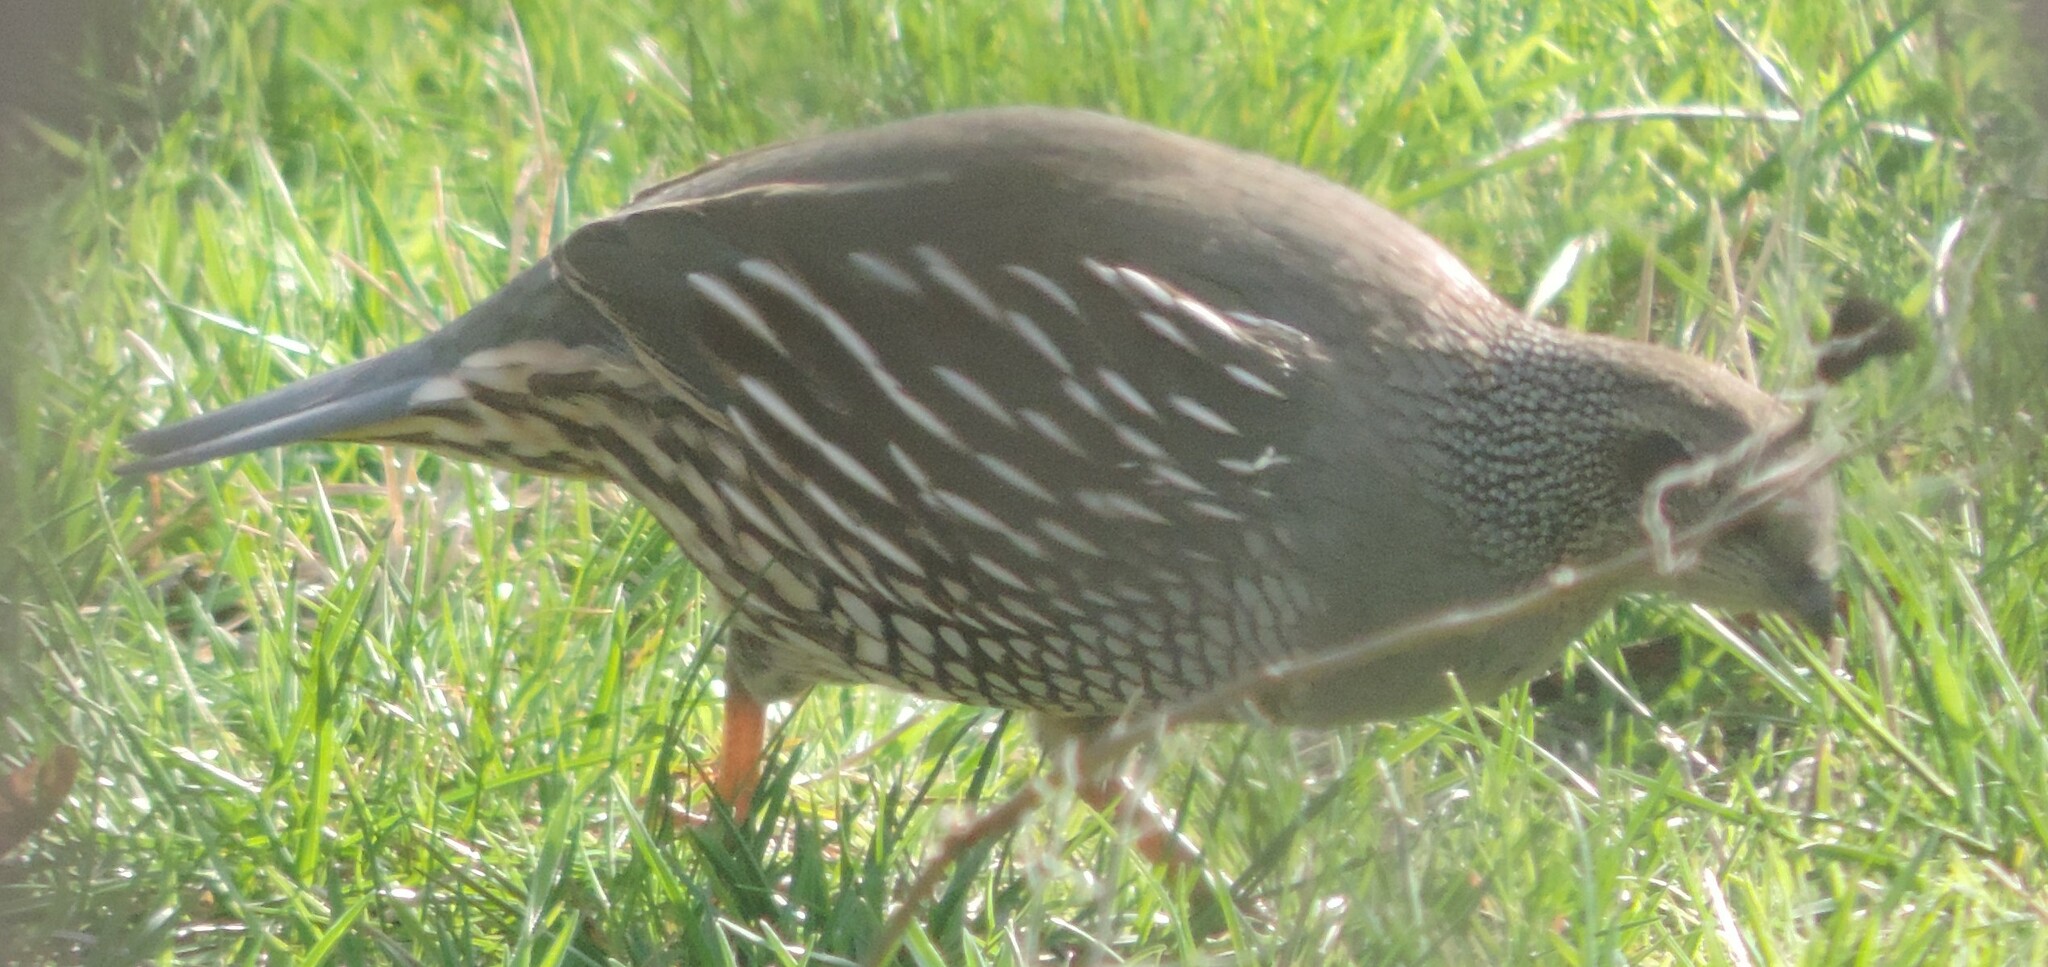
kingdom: Animalia
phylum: Chordata
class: Aves
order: Galliformes
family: Odontophoridae
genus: Callipepla
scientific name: Callipepla californica
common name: California quail
